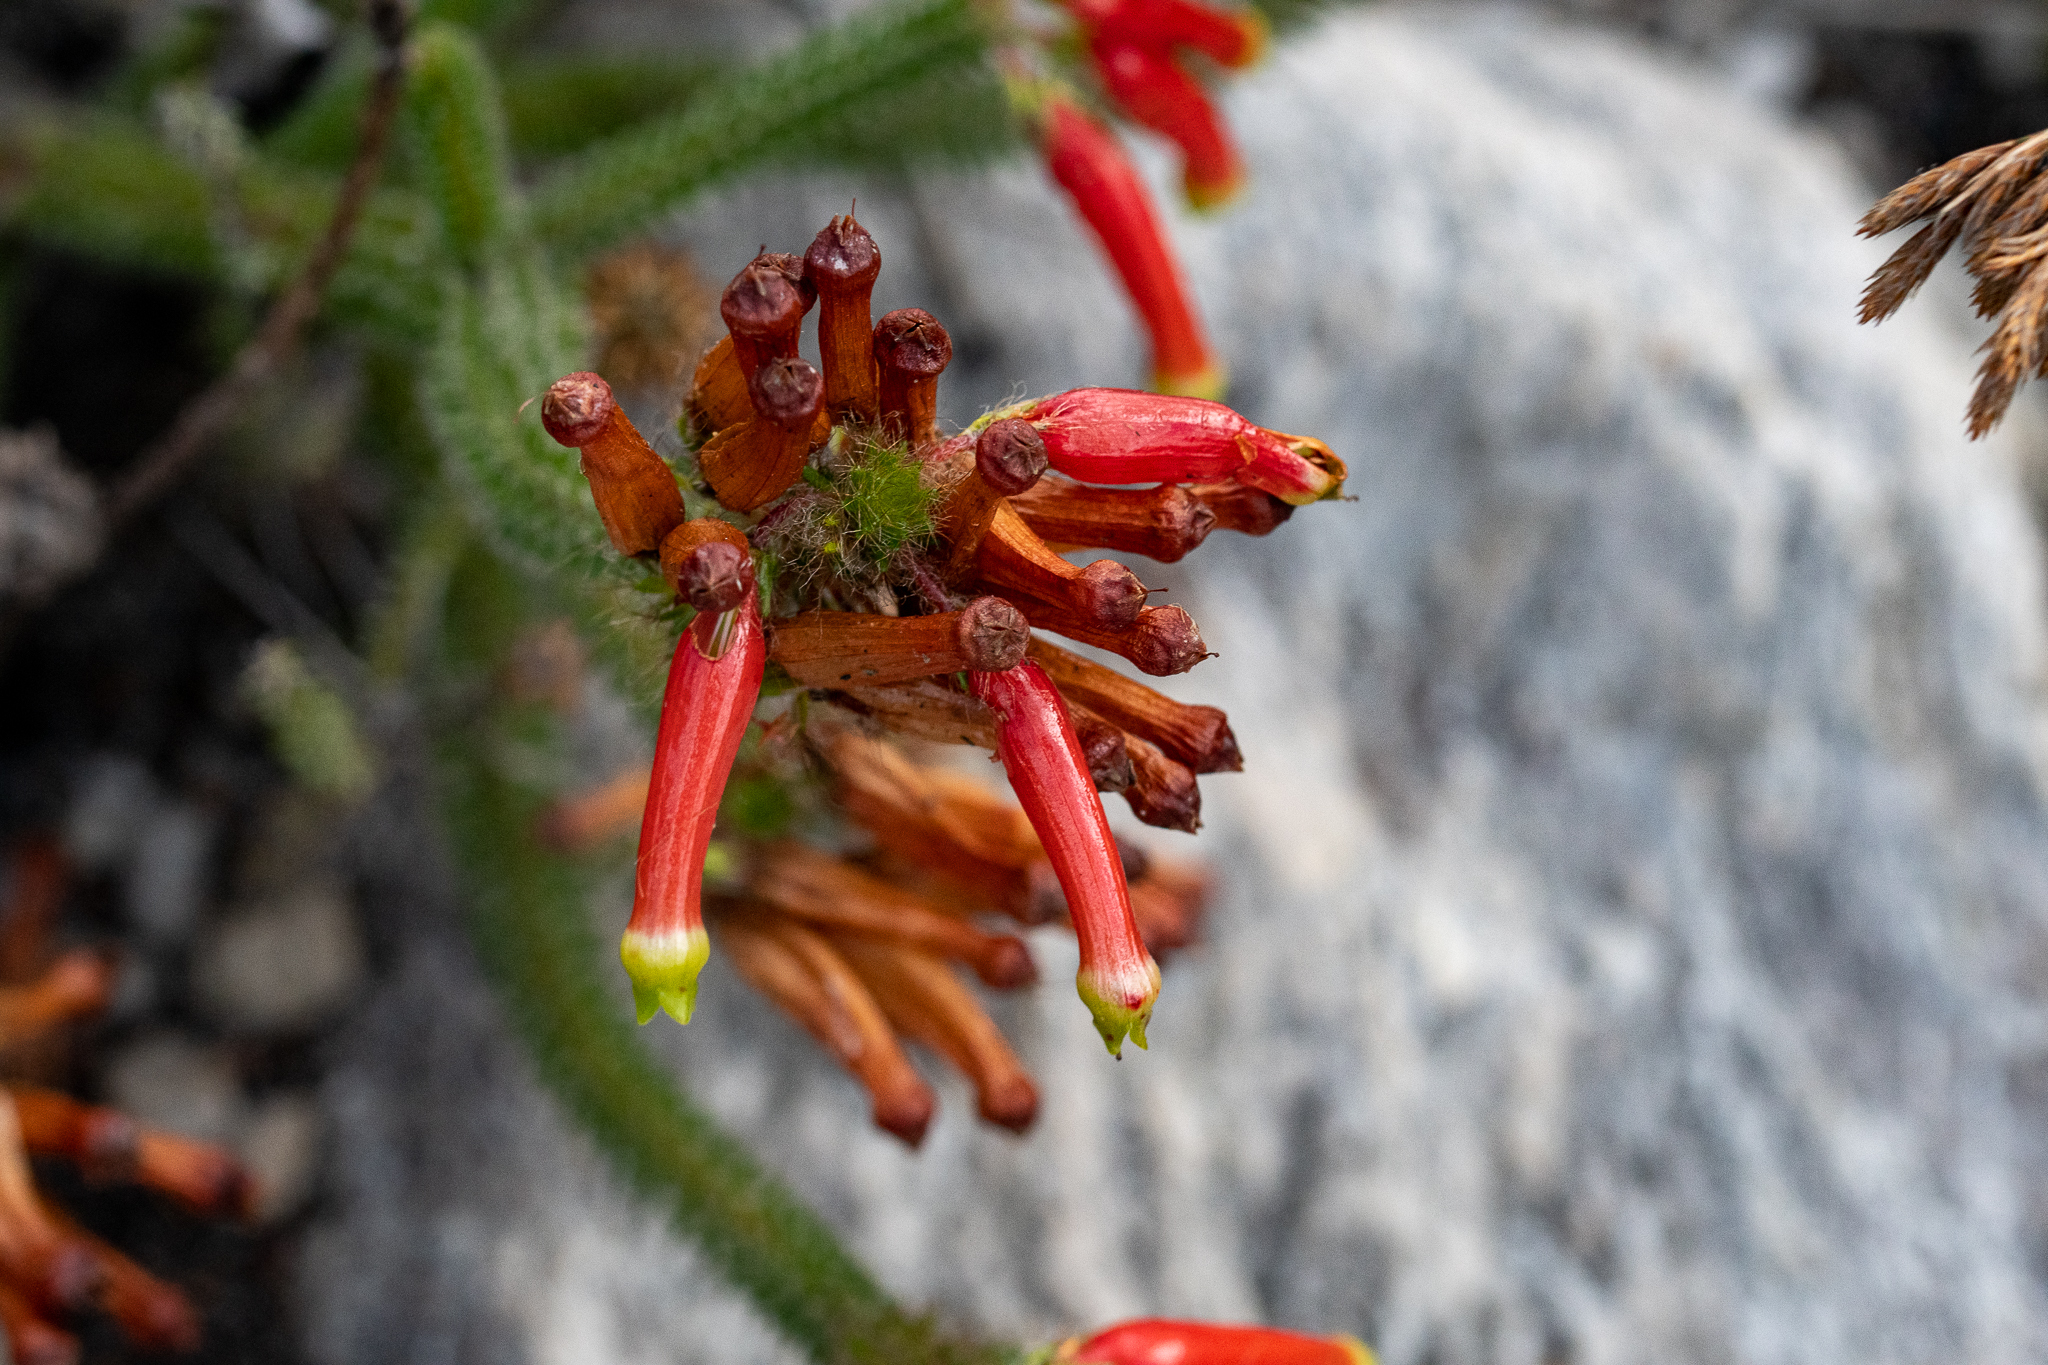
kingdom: Plantae
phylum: Tracheophyta
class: Magnoliopsida
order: Ericales
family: Ericaceae
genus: Erica
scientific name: Erica massonii
